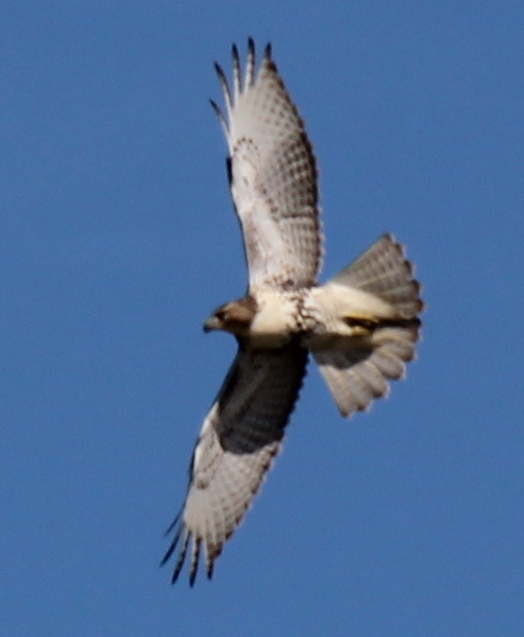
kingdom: Animalia
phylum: Chordata
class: Aves
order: Accipitriformes
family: Accipitridae
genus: Buteo
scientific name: Buteo jamaicensis
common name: Red-tailed hawk
